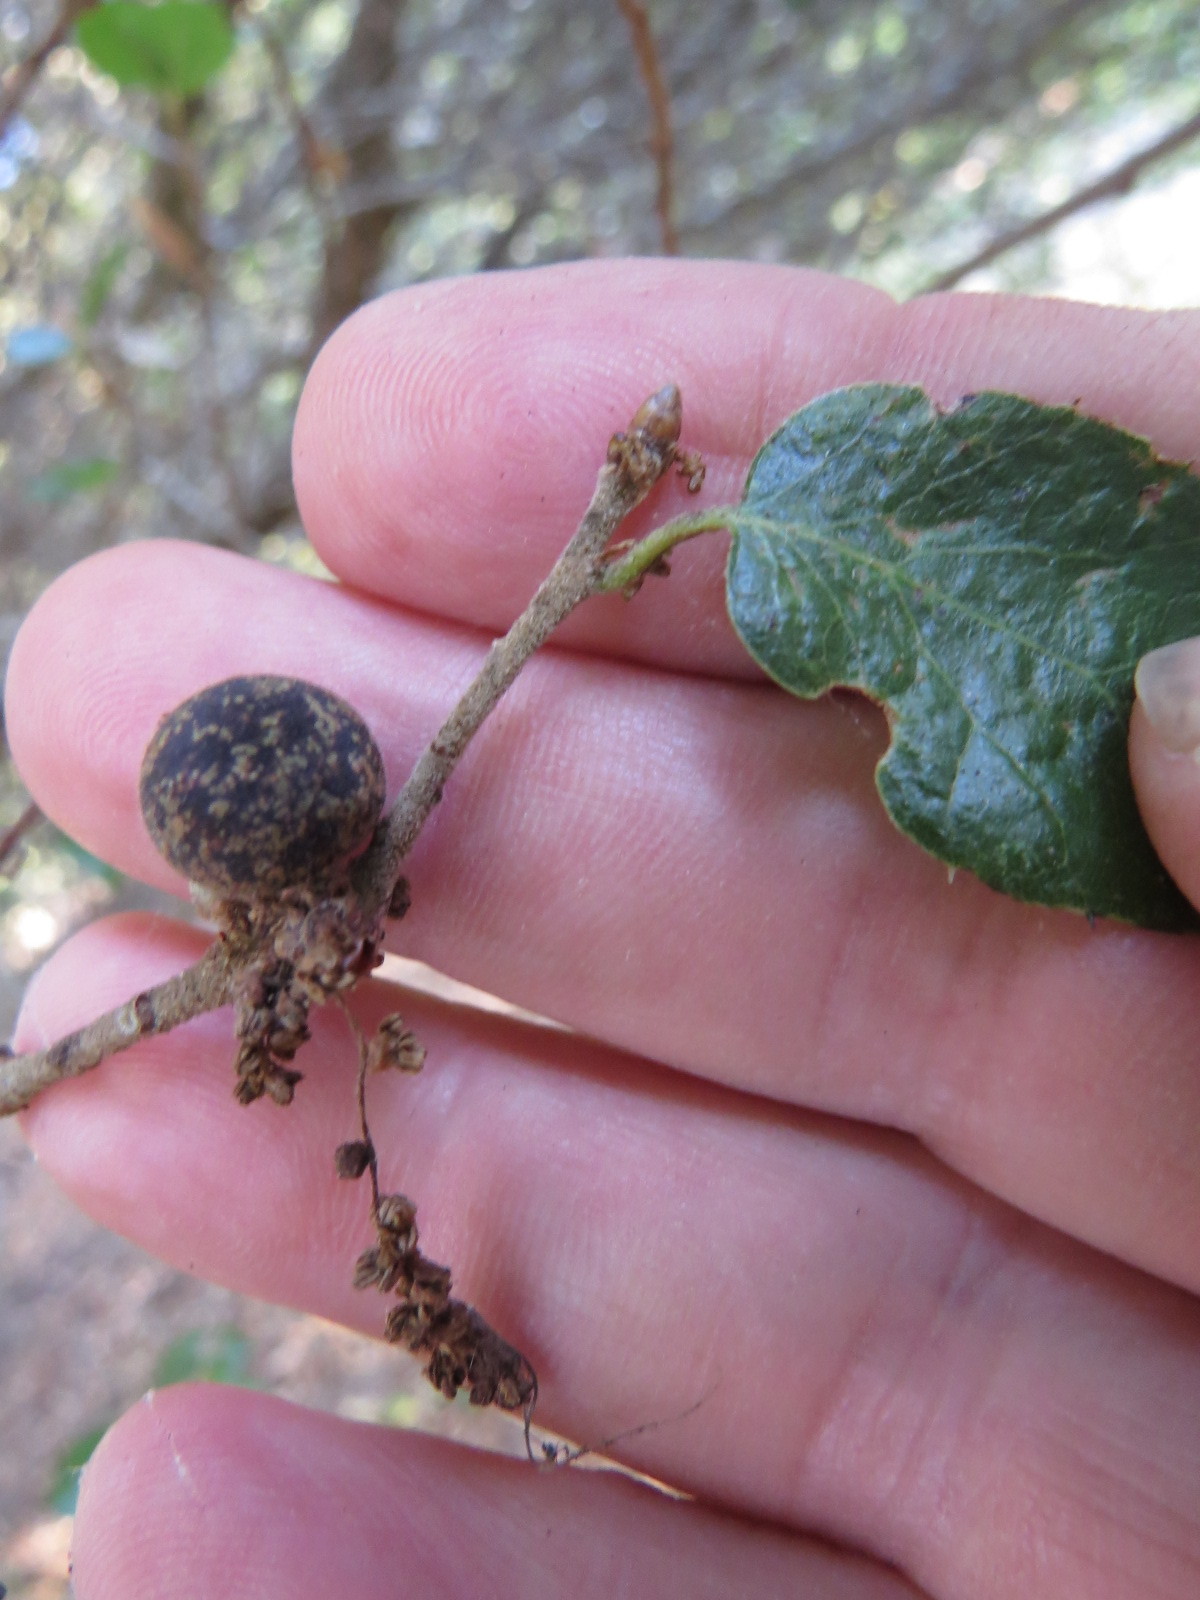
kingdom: Animalia
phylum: Arthropoda
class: Insecta
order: Hymenoptera
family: Cynipidae
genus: Callirhytis
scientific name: Callirhytis
